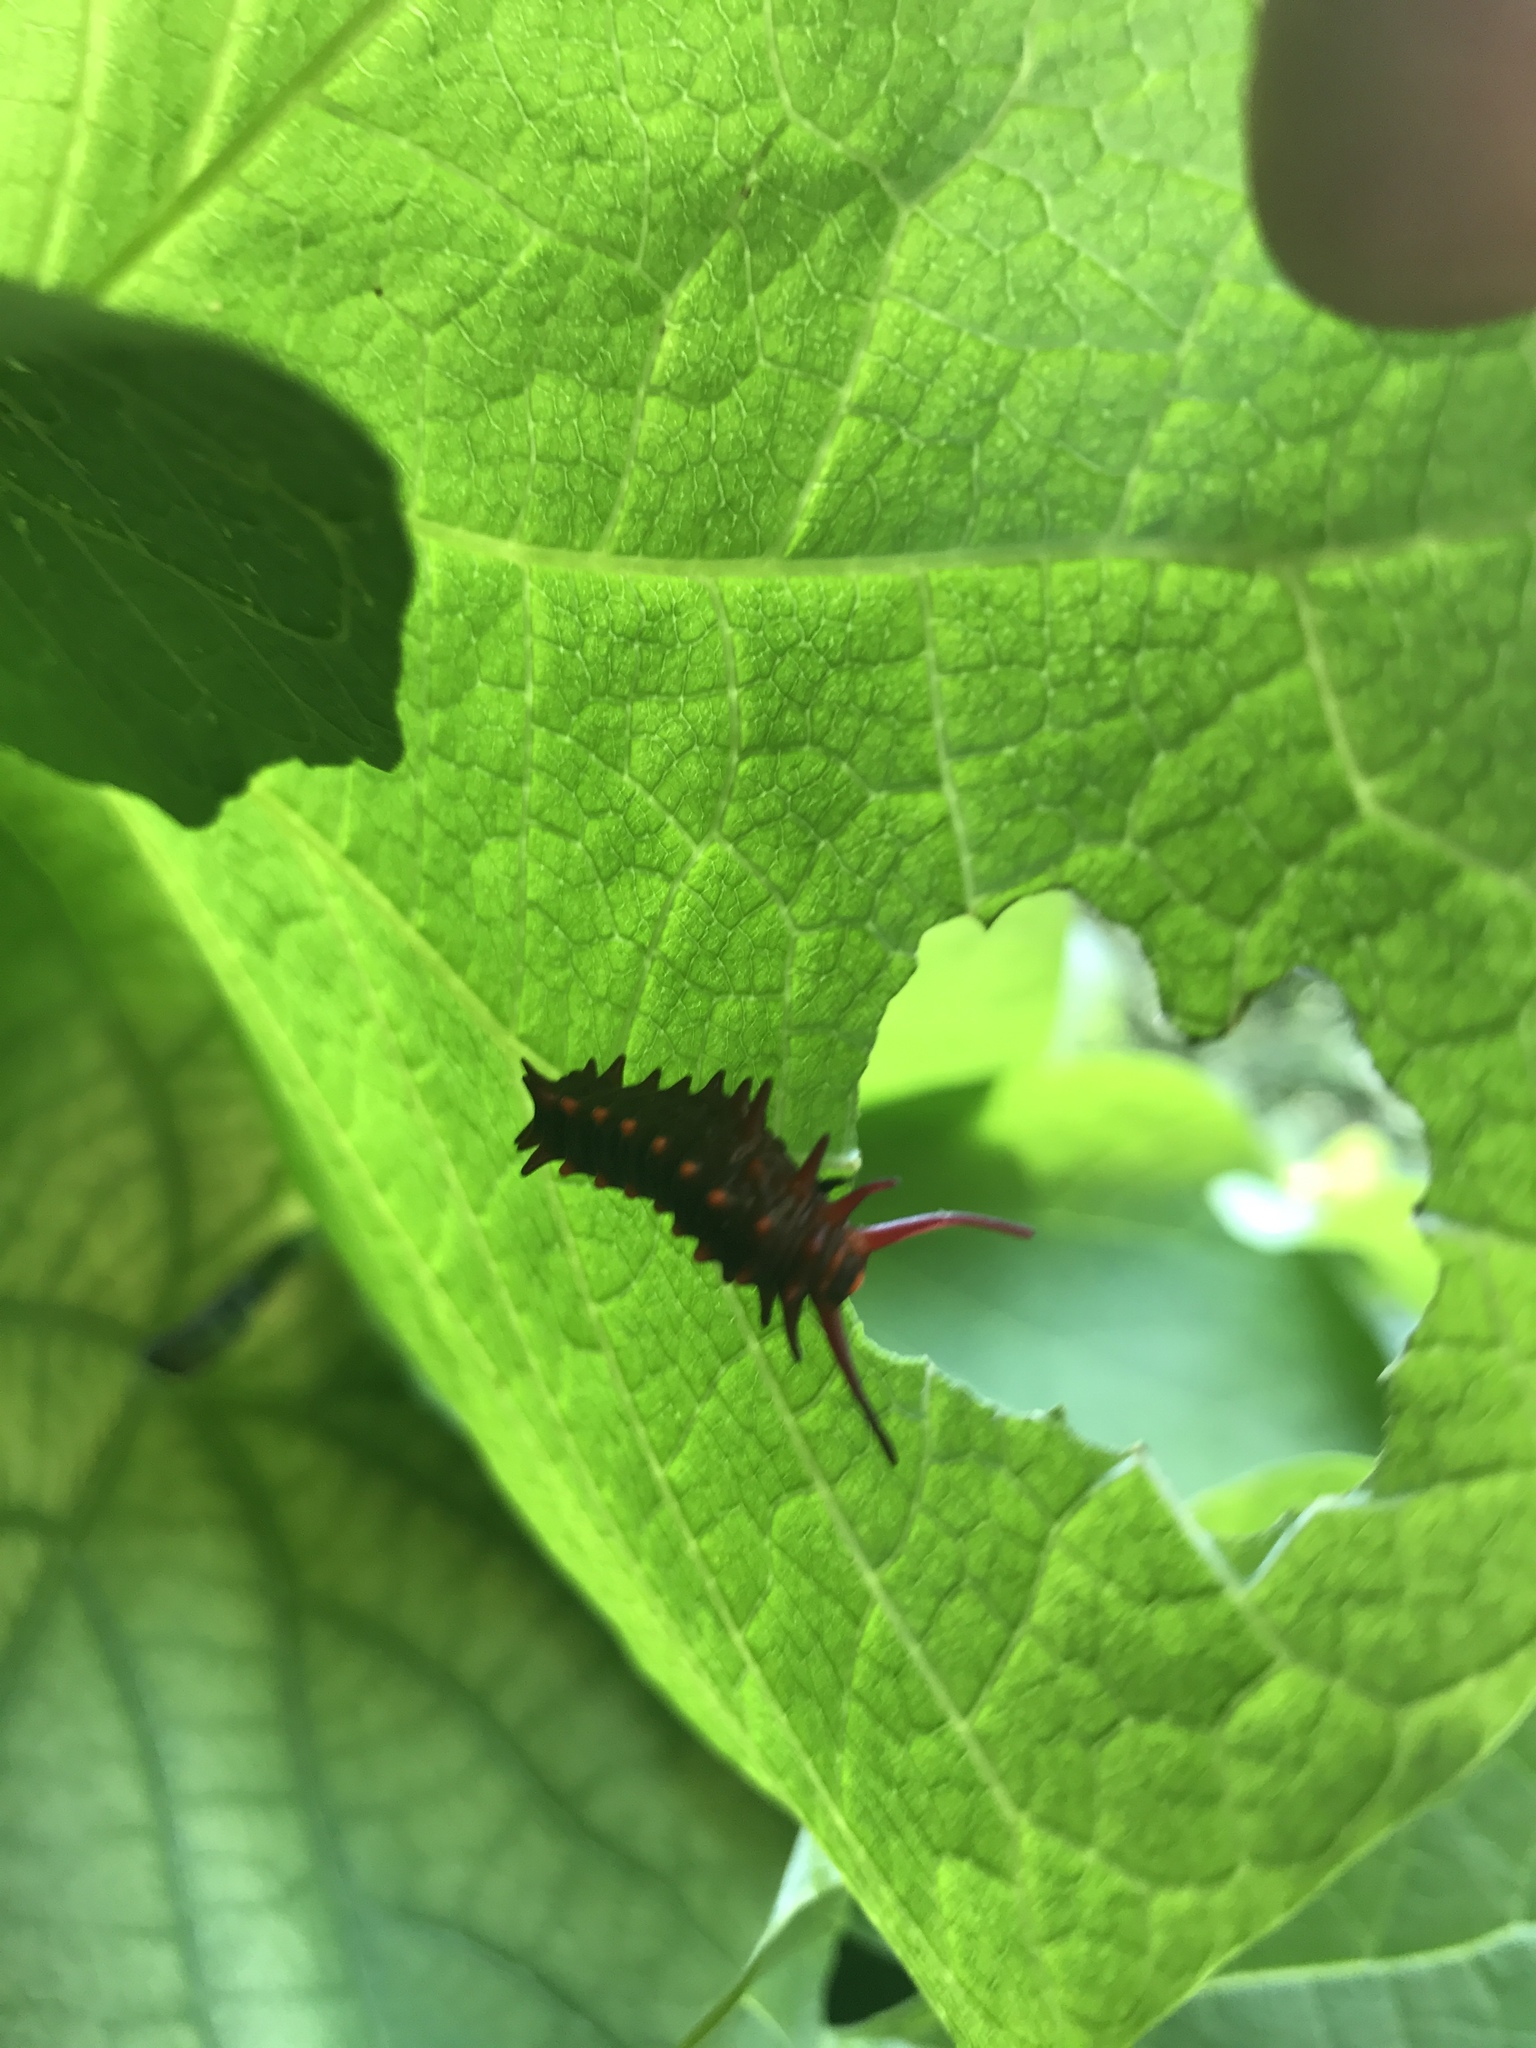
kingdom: Animalia
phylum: Arthropoda
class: Insecta
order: Lepidoptera
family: Papilionidae
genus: Battus
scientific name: Battus philenor
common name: Pipevine swallowtail
